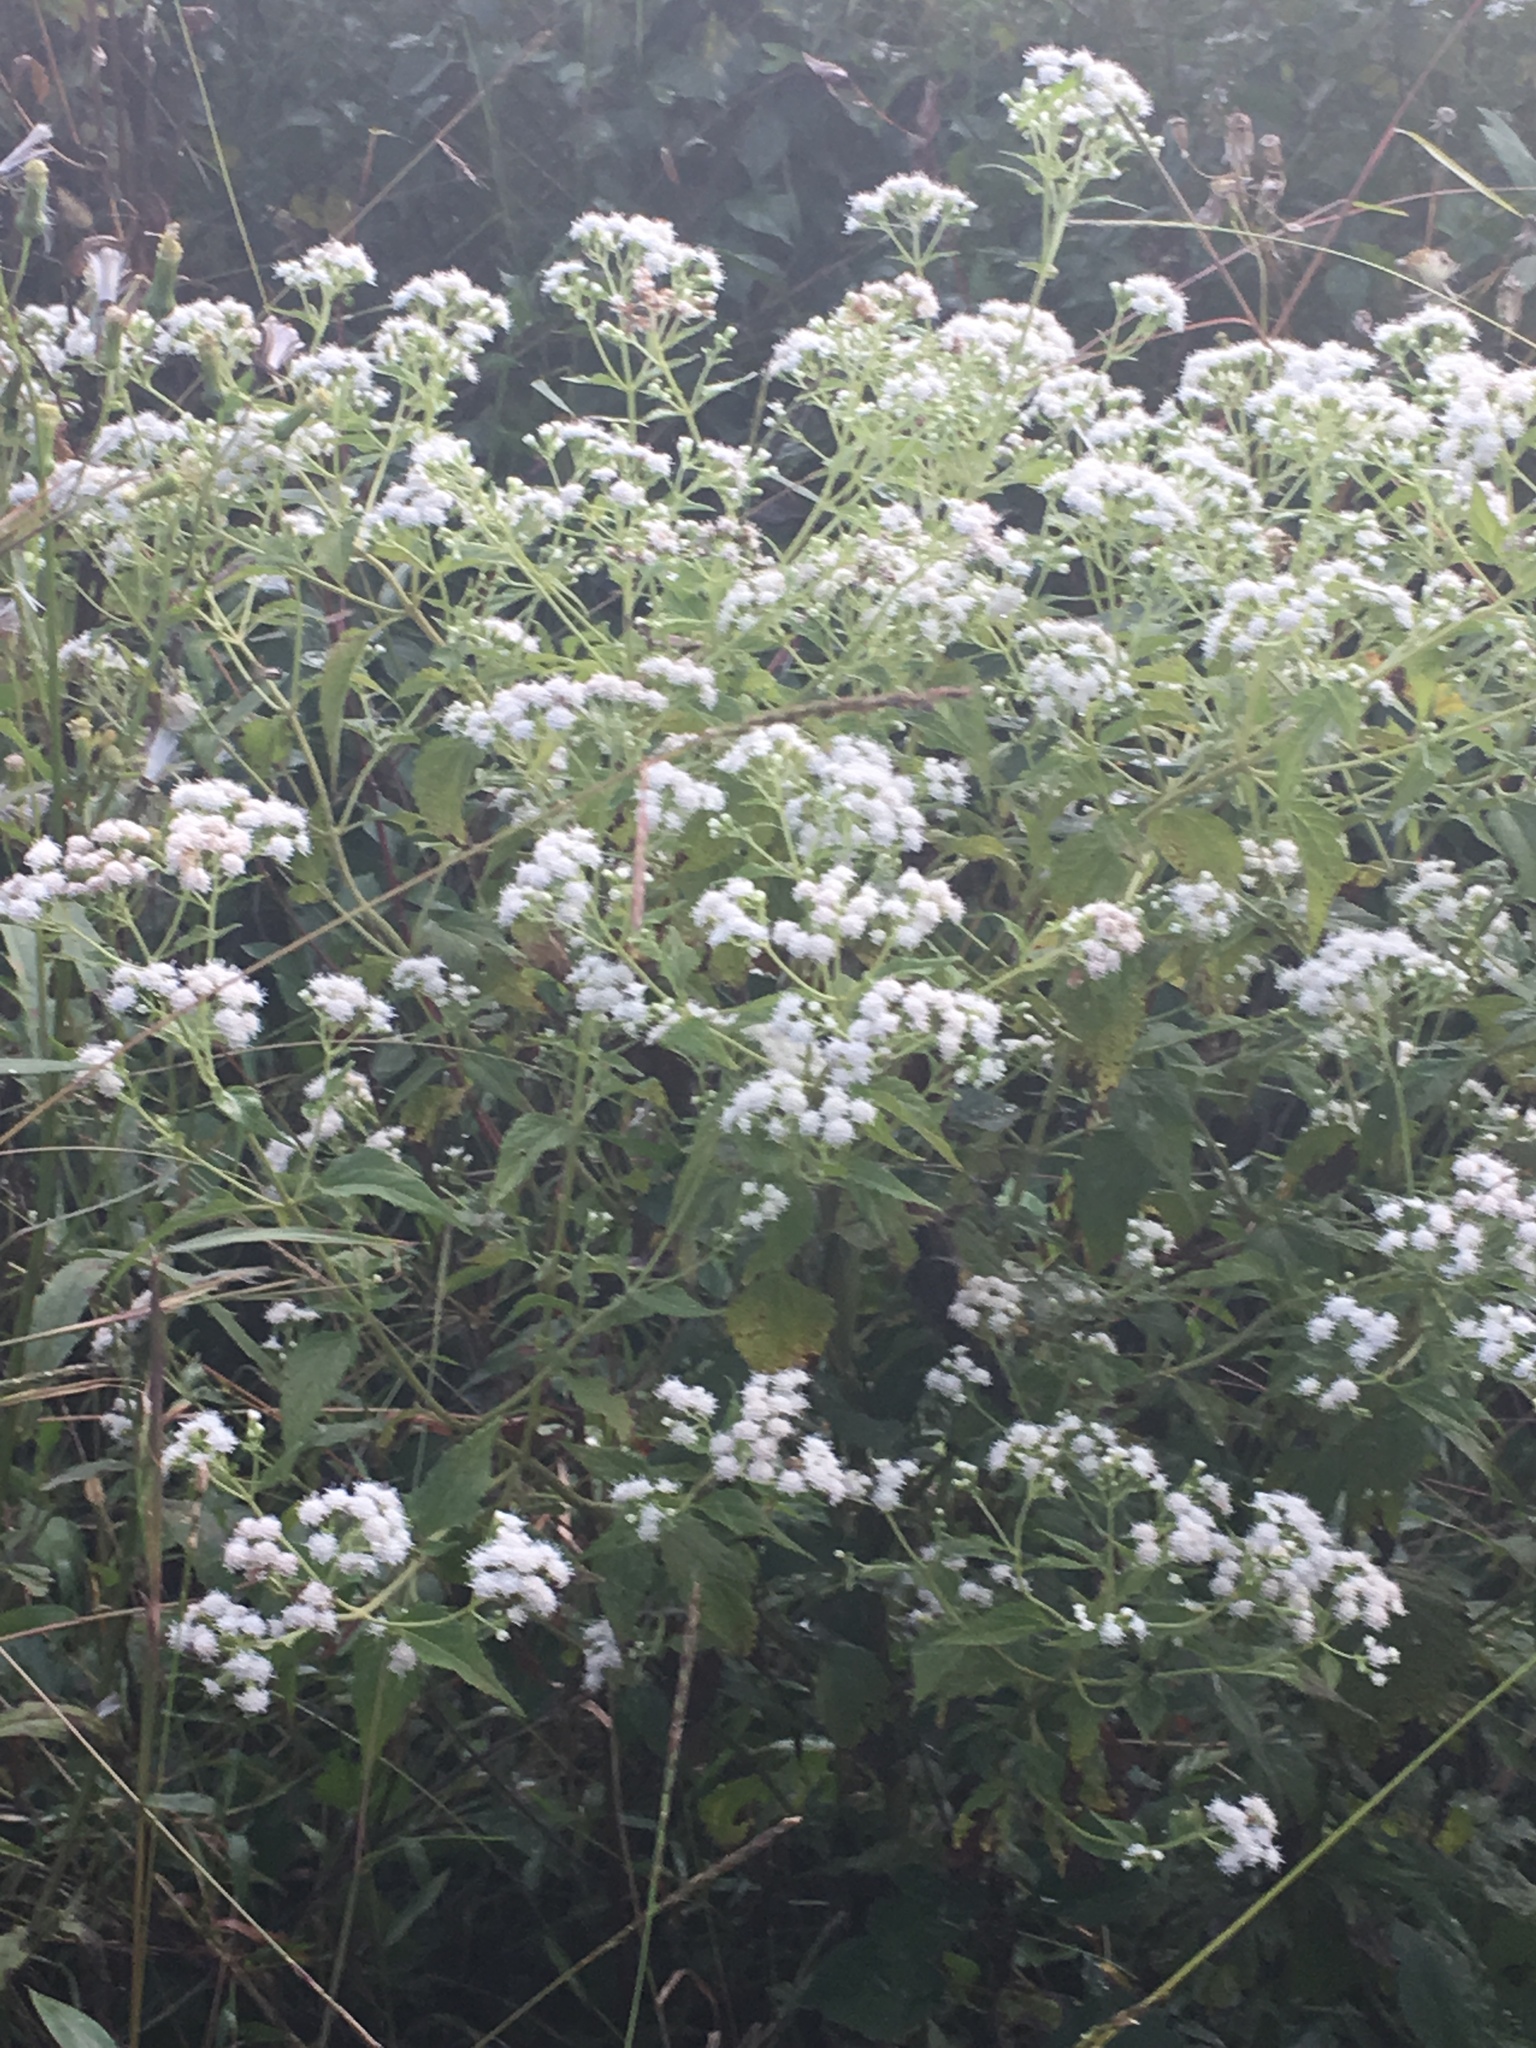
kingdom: Plantae
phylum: Tracheophyta
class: Magnoliopsida
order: Asterales
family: Asteraceae
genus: Ageratina
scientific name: Ageratina altissima
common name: White snakeroot
